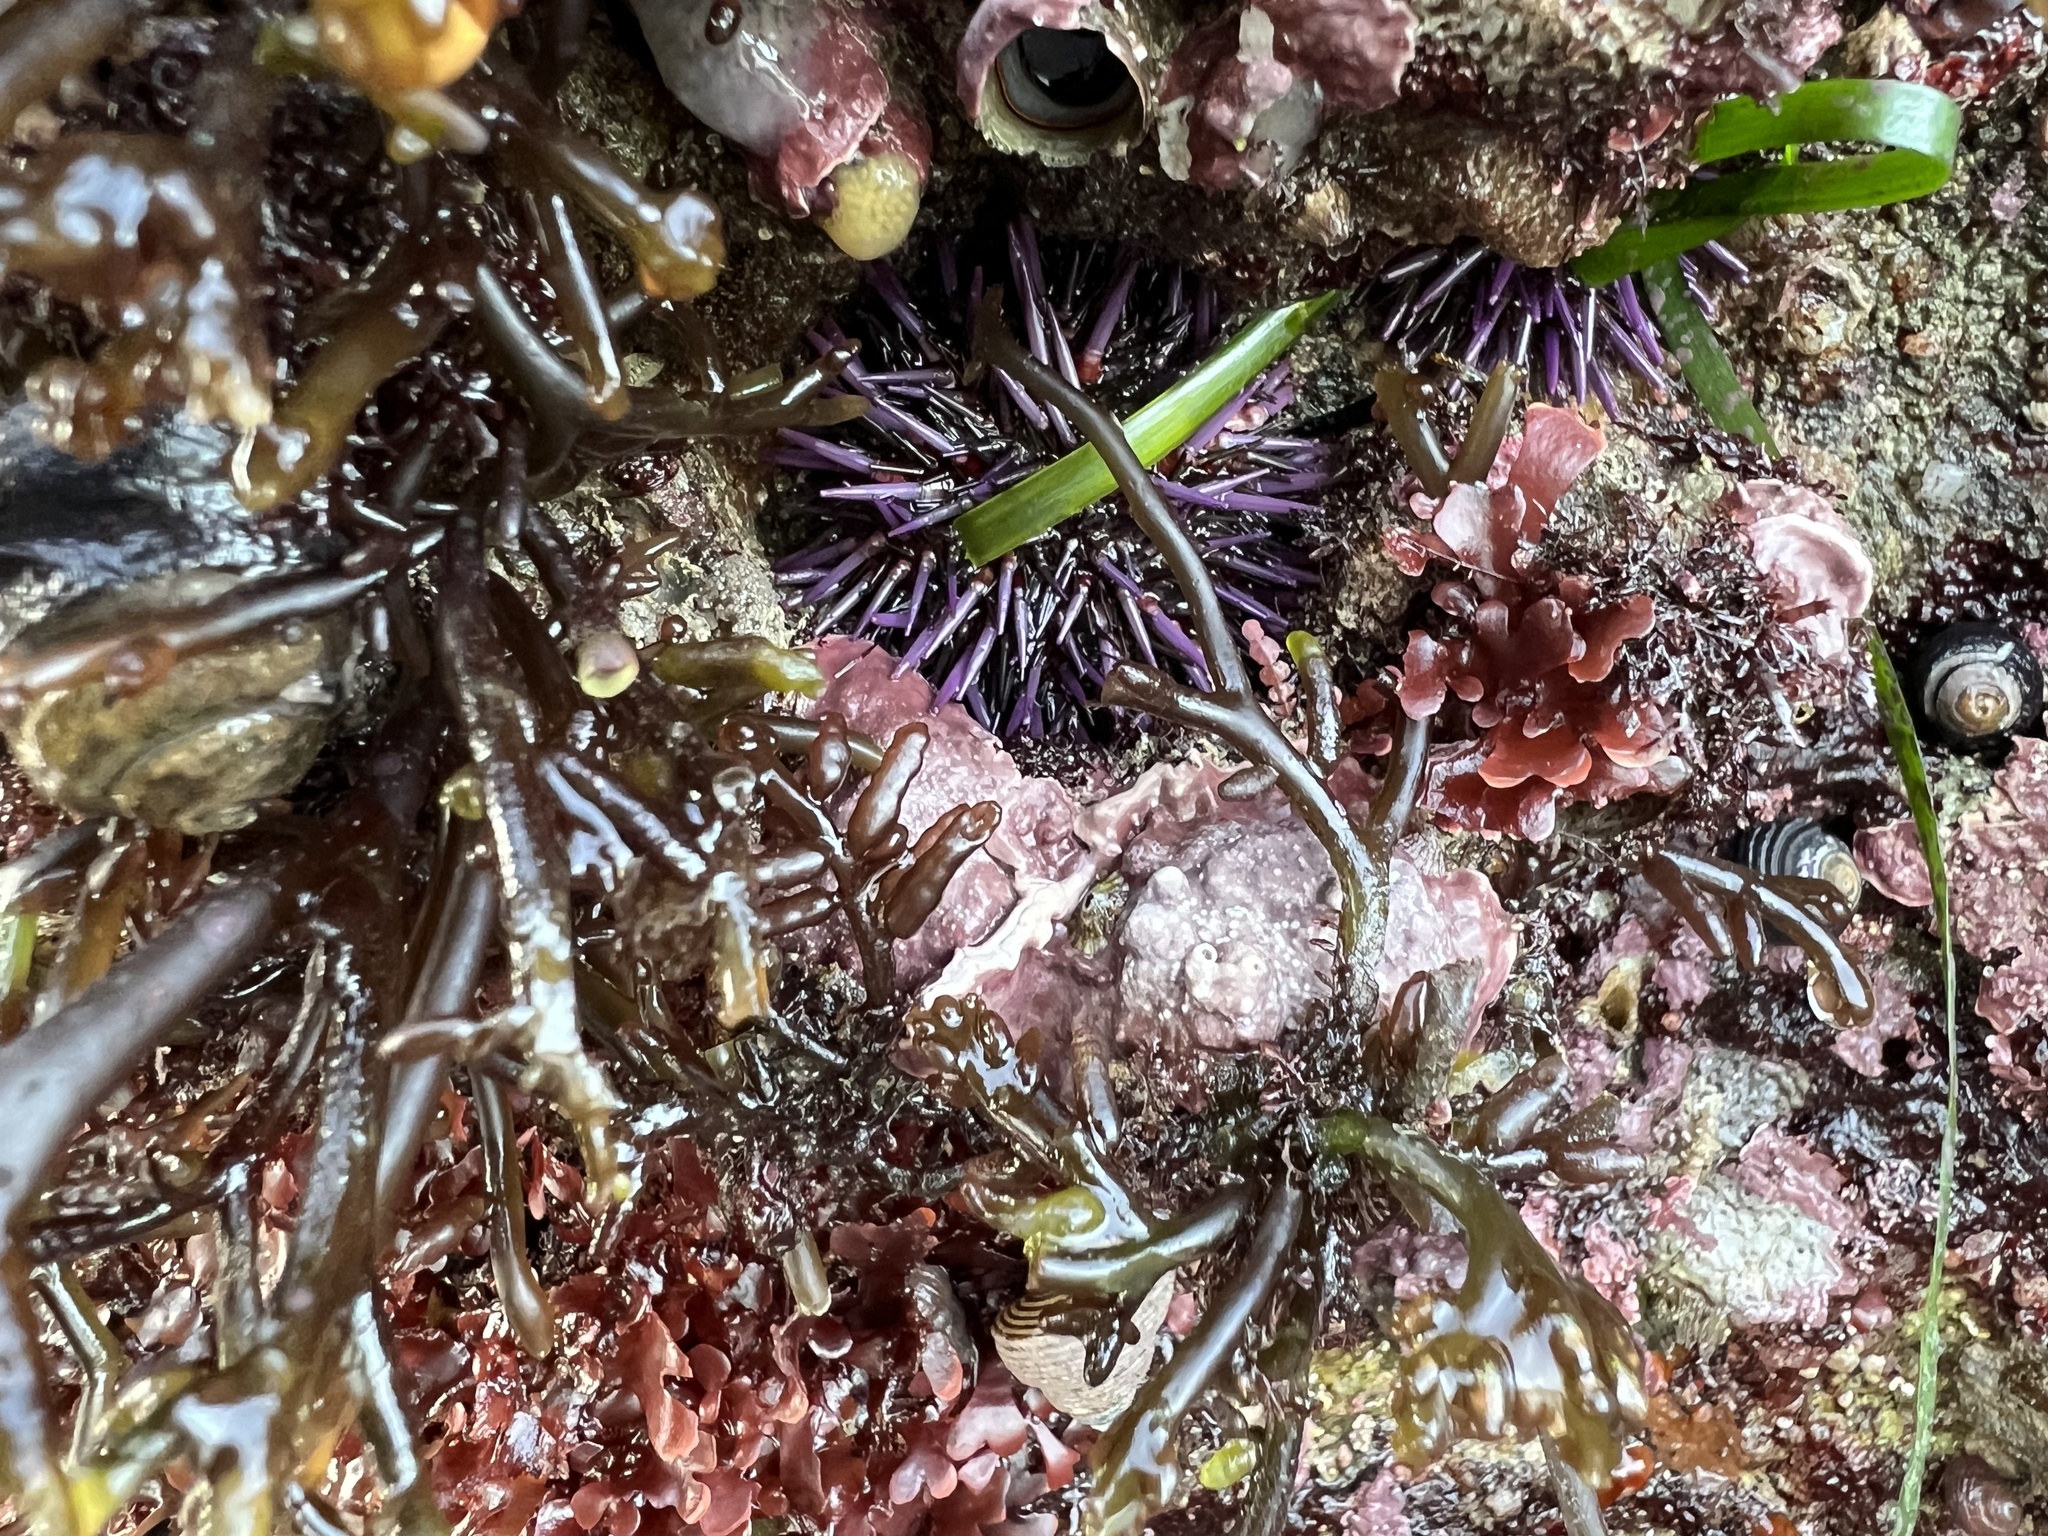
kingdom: Animalia
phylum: Echinodermata
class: Echinoidea
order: Camarodonta
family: Strongylocentrotidae
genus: Strongylocentrotus
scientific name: Strongylocentrotus purpuratus
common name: Purple sea urchin
